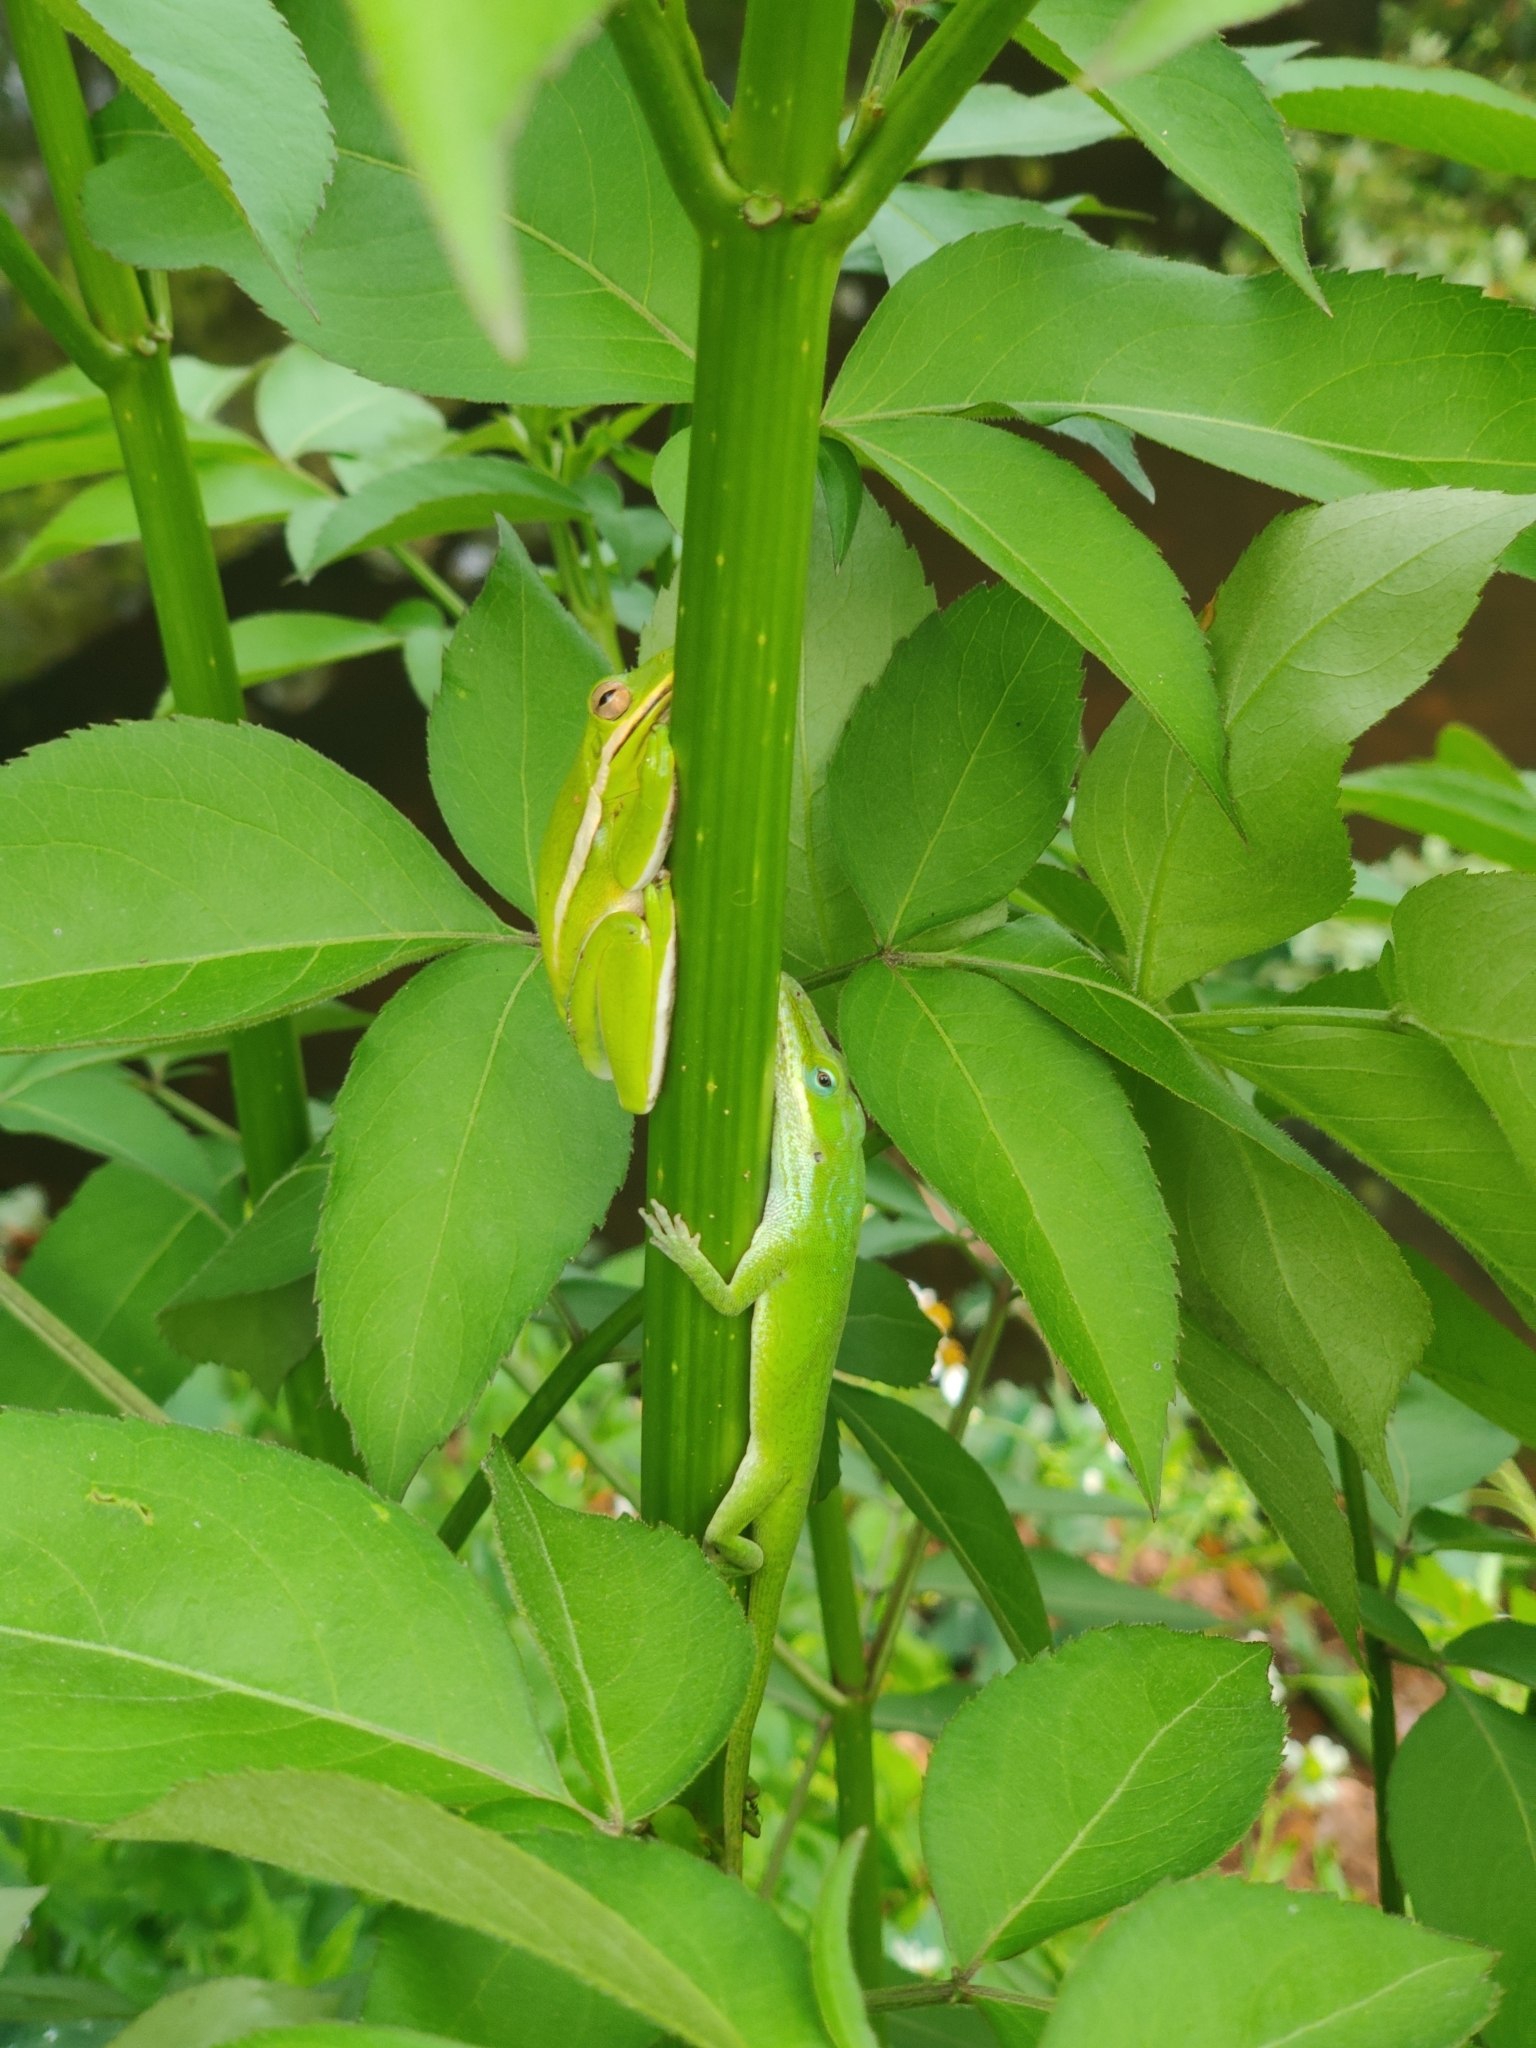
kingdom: Animalia
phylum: Chordata
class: Squamata
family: Dactyloidae
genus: Anolis
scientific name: Anolis carolinensis
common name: Green anole
